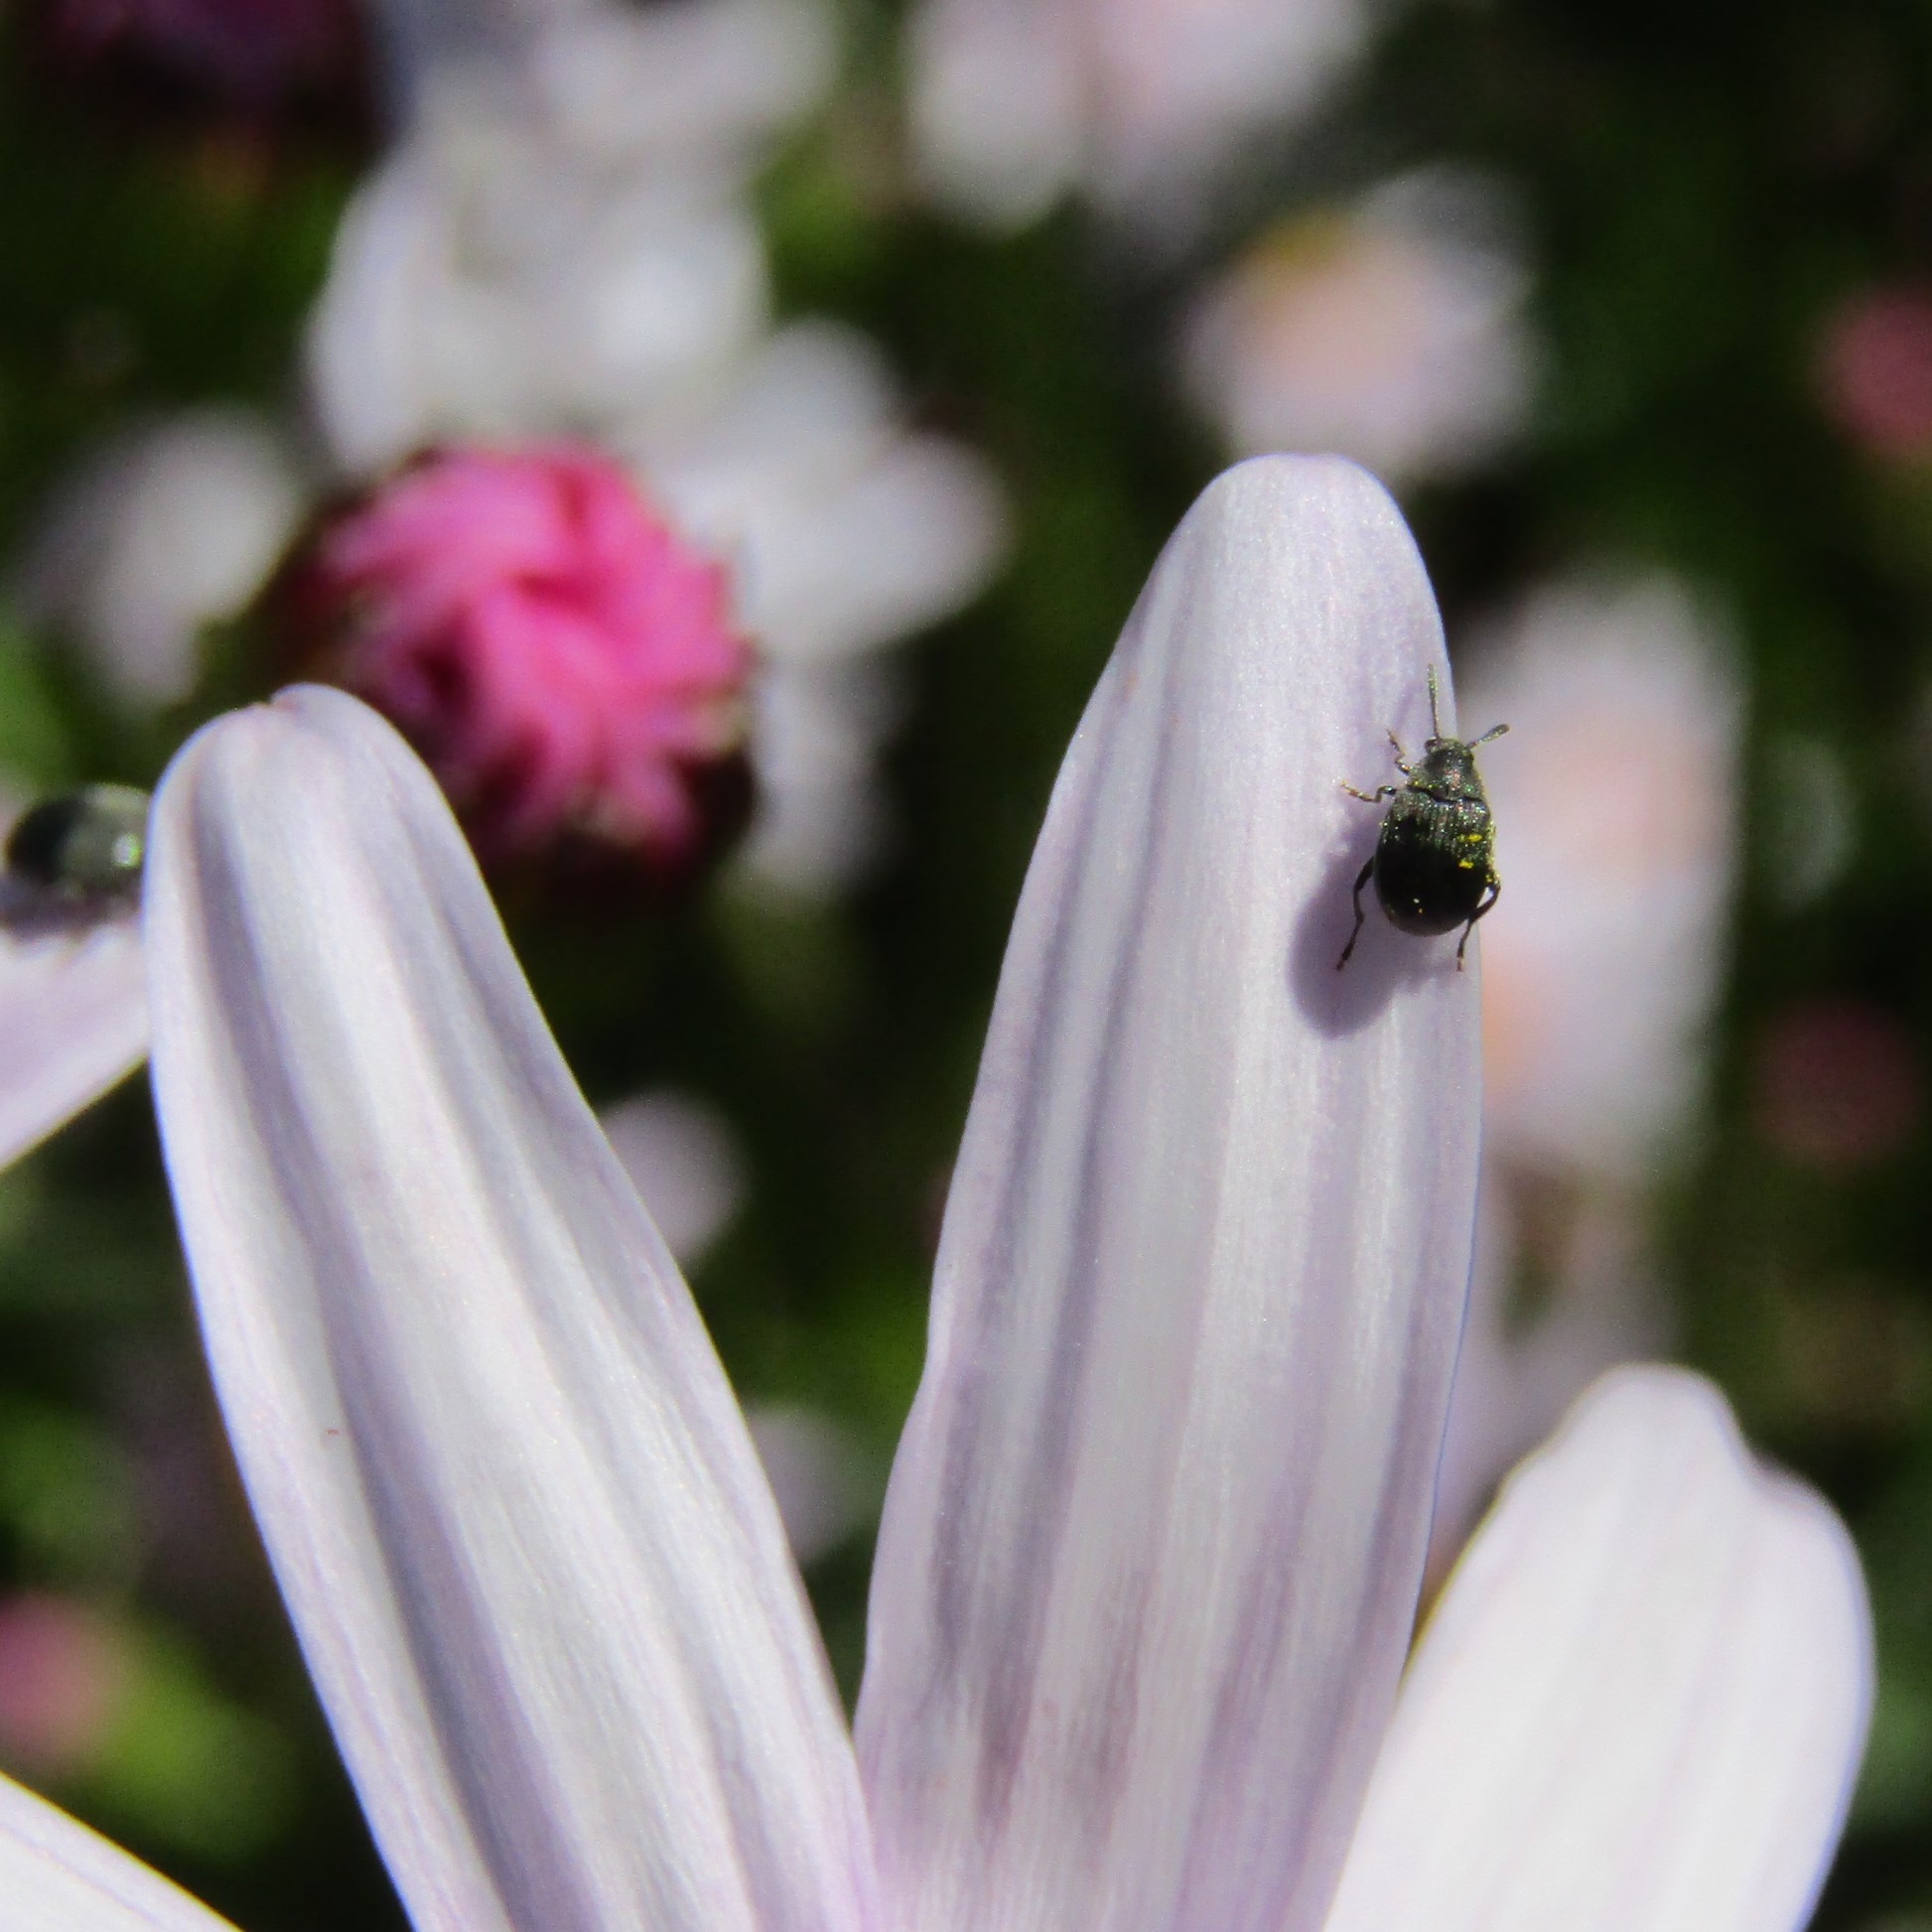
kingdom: Animalia
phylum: Arthropoda
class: Insecta
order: Coleoptera
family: Chrysomelidae
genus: Bruchidius
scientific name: Bruchidius villosus
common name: Scotch broom bruchid
